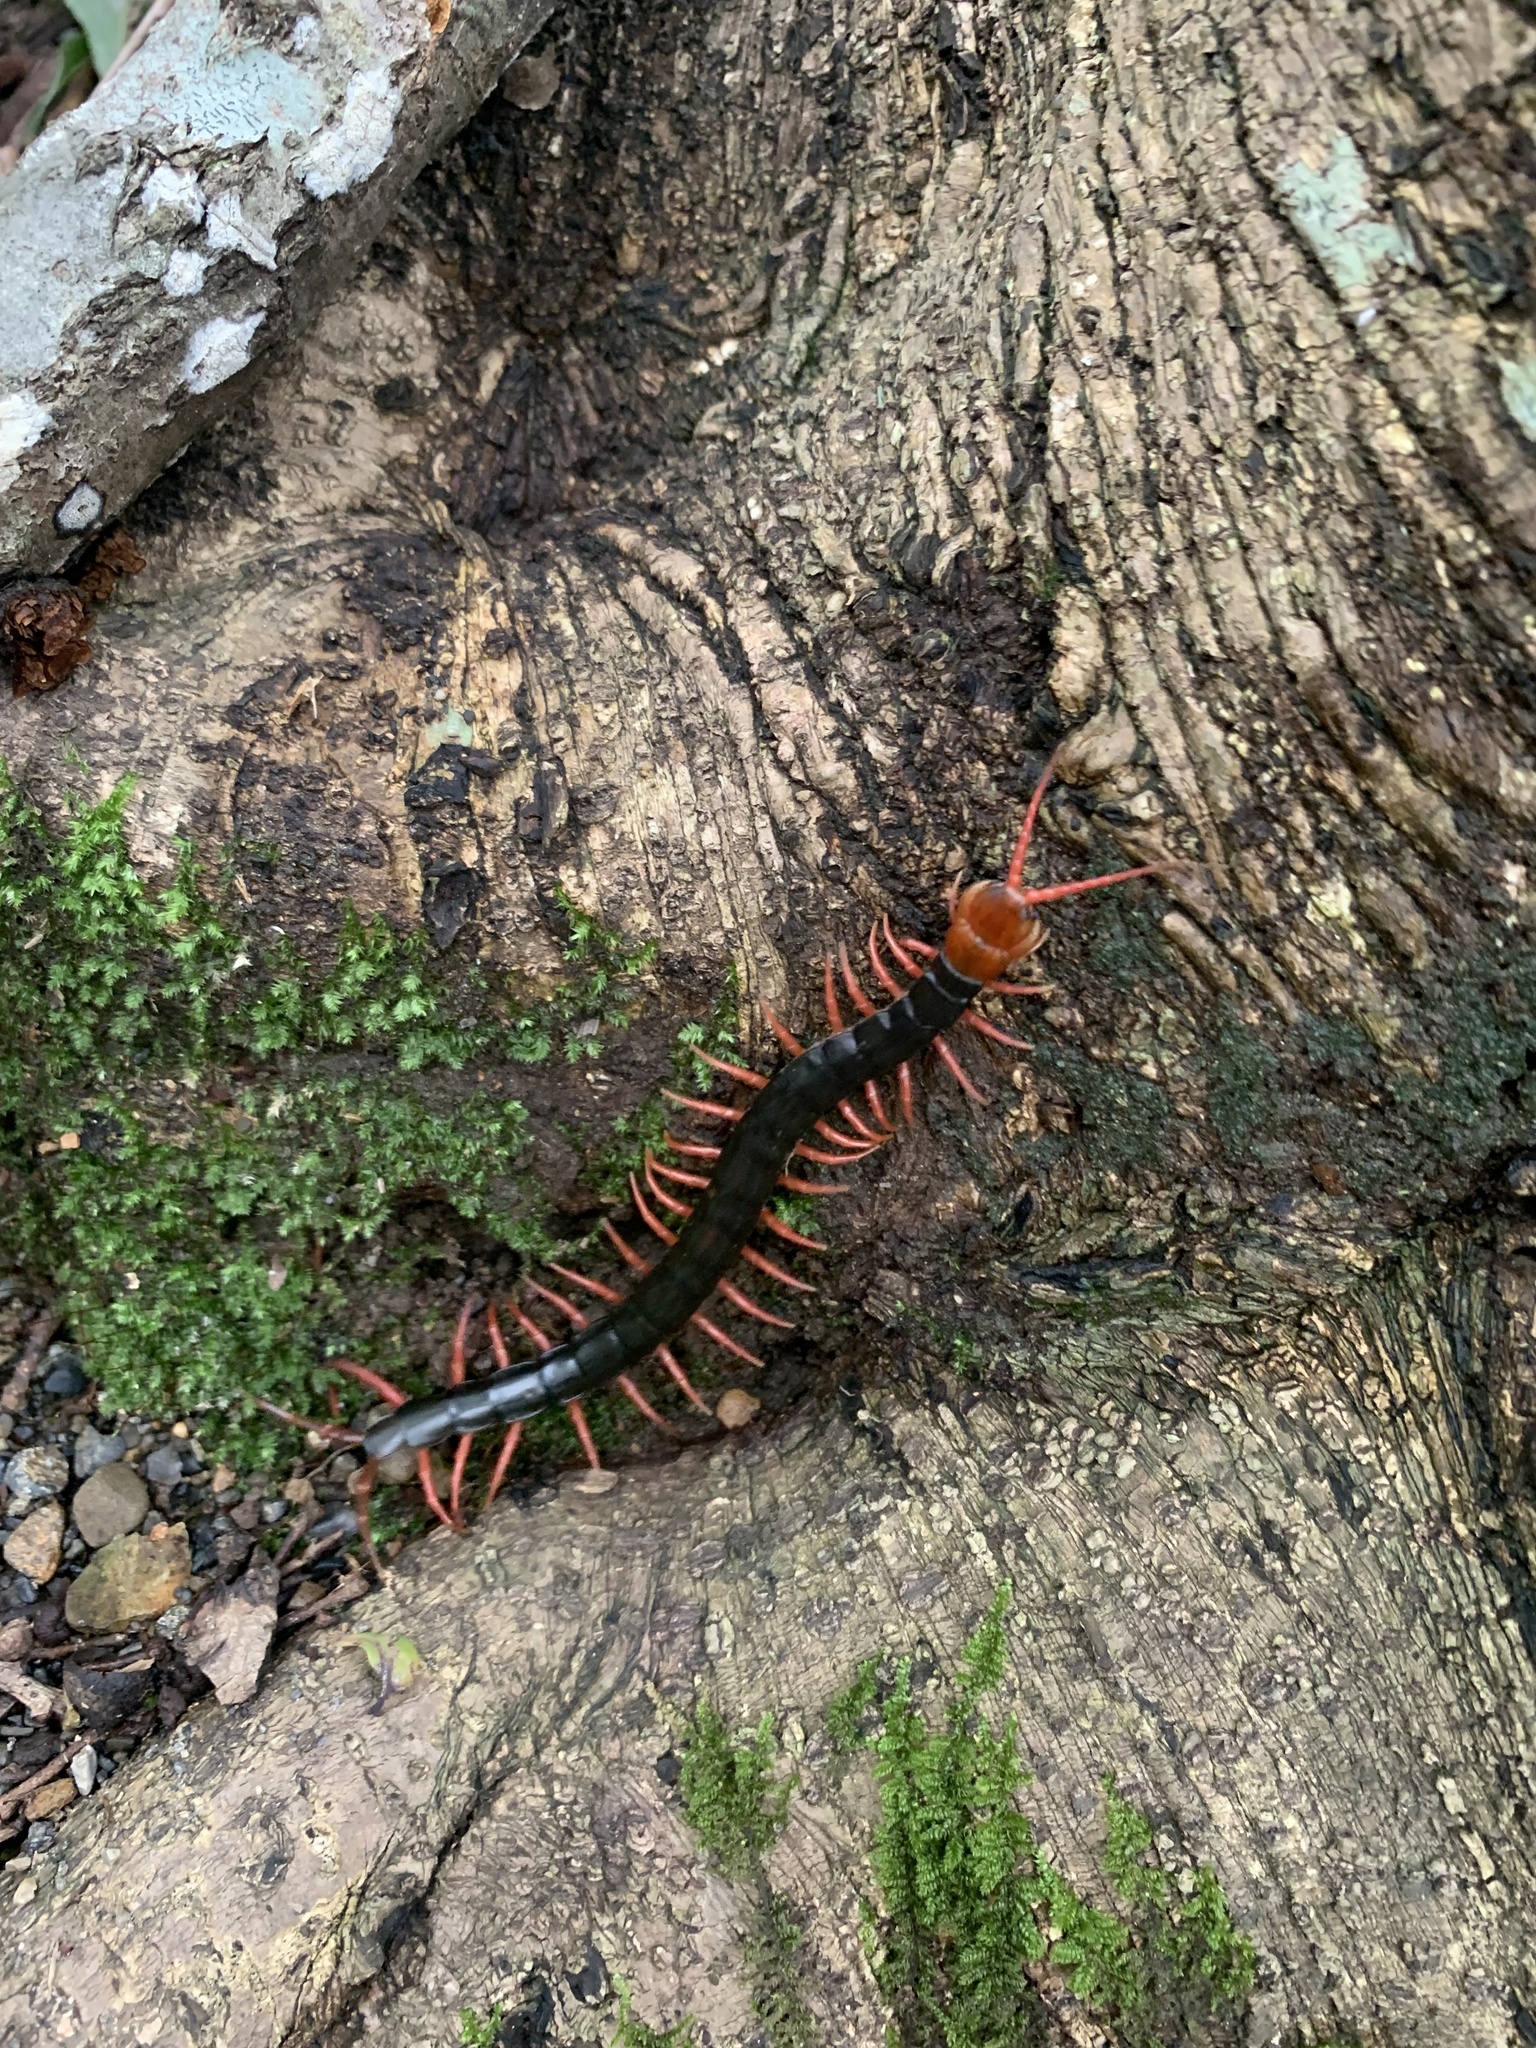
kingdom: Animalia
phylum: Arthropoda
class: Chilopoda
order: Scolopendromorpha
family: Scolopendridae
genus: Scolopendra
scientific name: Scolopendra mutilans
